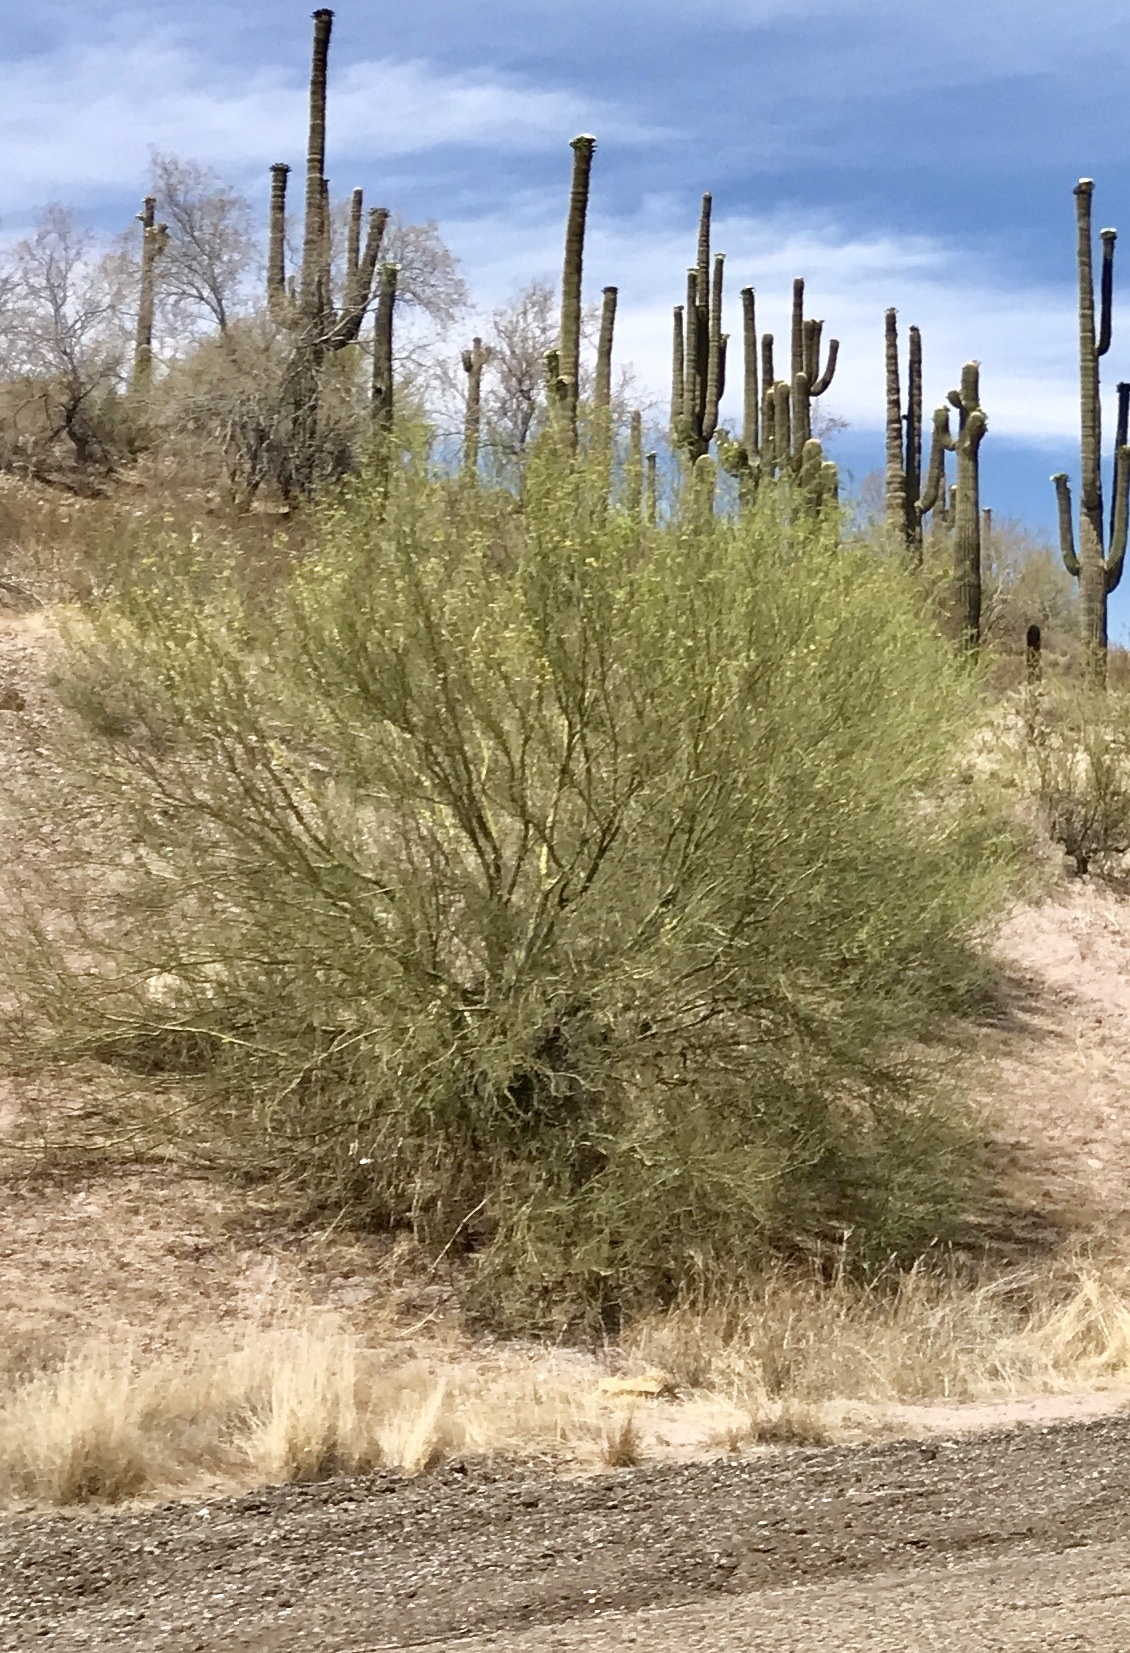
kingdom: Plantae
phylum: Tracheophyta
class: Magnoliopsida
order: Fabales
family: Fabaceae
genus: Parkinsonia
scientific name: Parkinsonia microphylla
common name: Yellow paloverde
